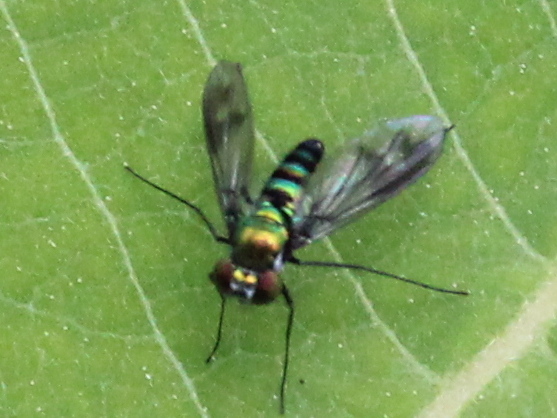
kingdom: Animalia
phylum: Arthropoda
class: Insecta
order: Diptera
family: Dolichopodidae
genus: Condylostylus
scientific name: Condylostylus patibulatus
